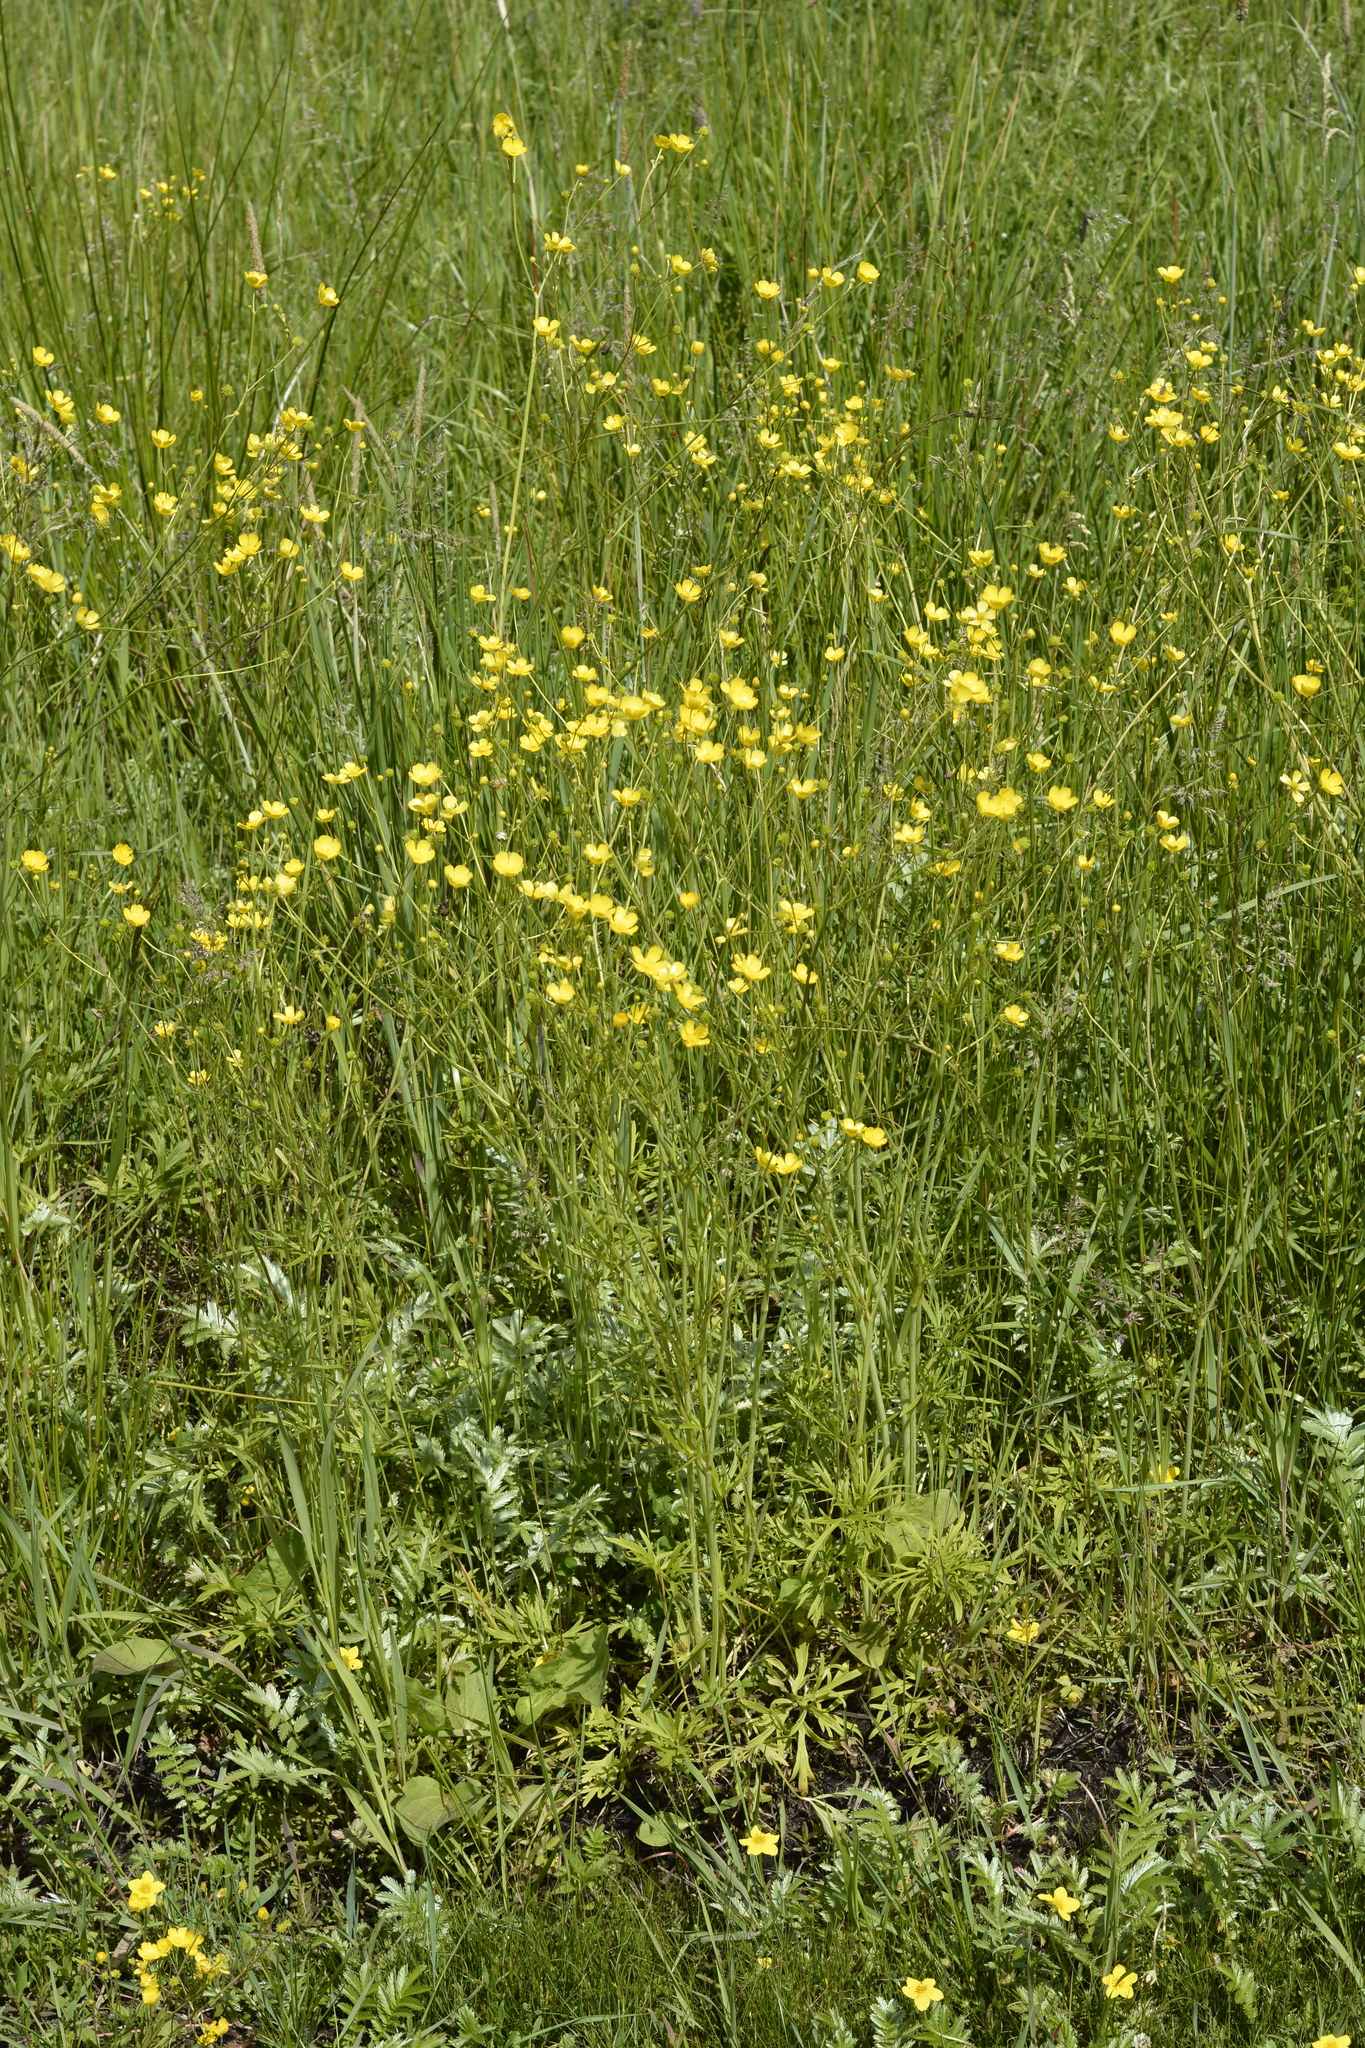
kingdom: Plantae
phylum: Tracheophyta
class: Magnoliopsida
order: Ranunculales
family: Ranunculaceae
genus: Ranunculus
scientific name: Ranunculus acris
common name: Meadow buttercup
